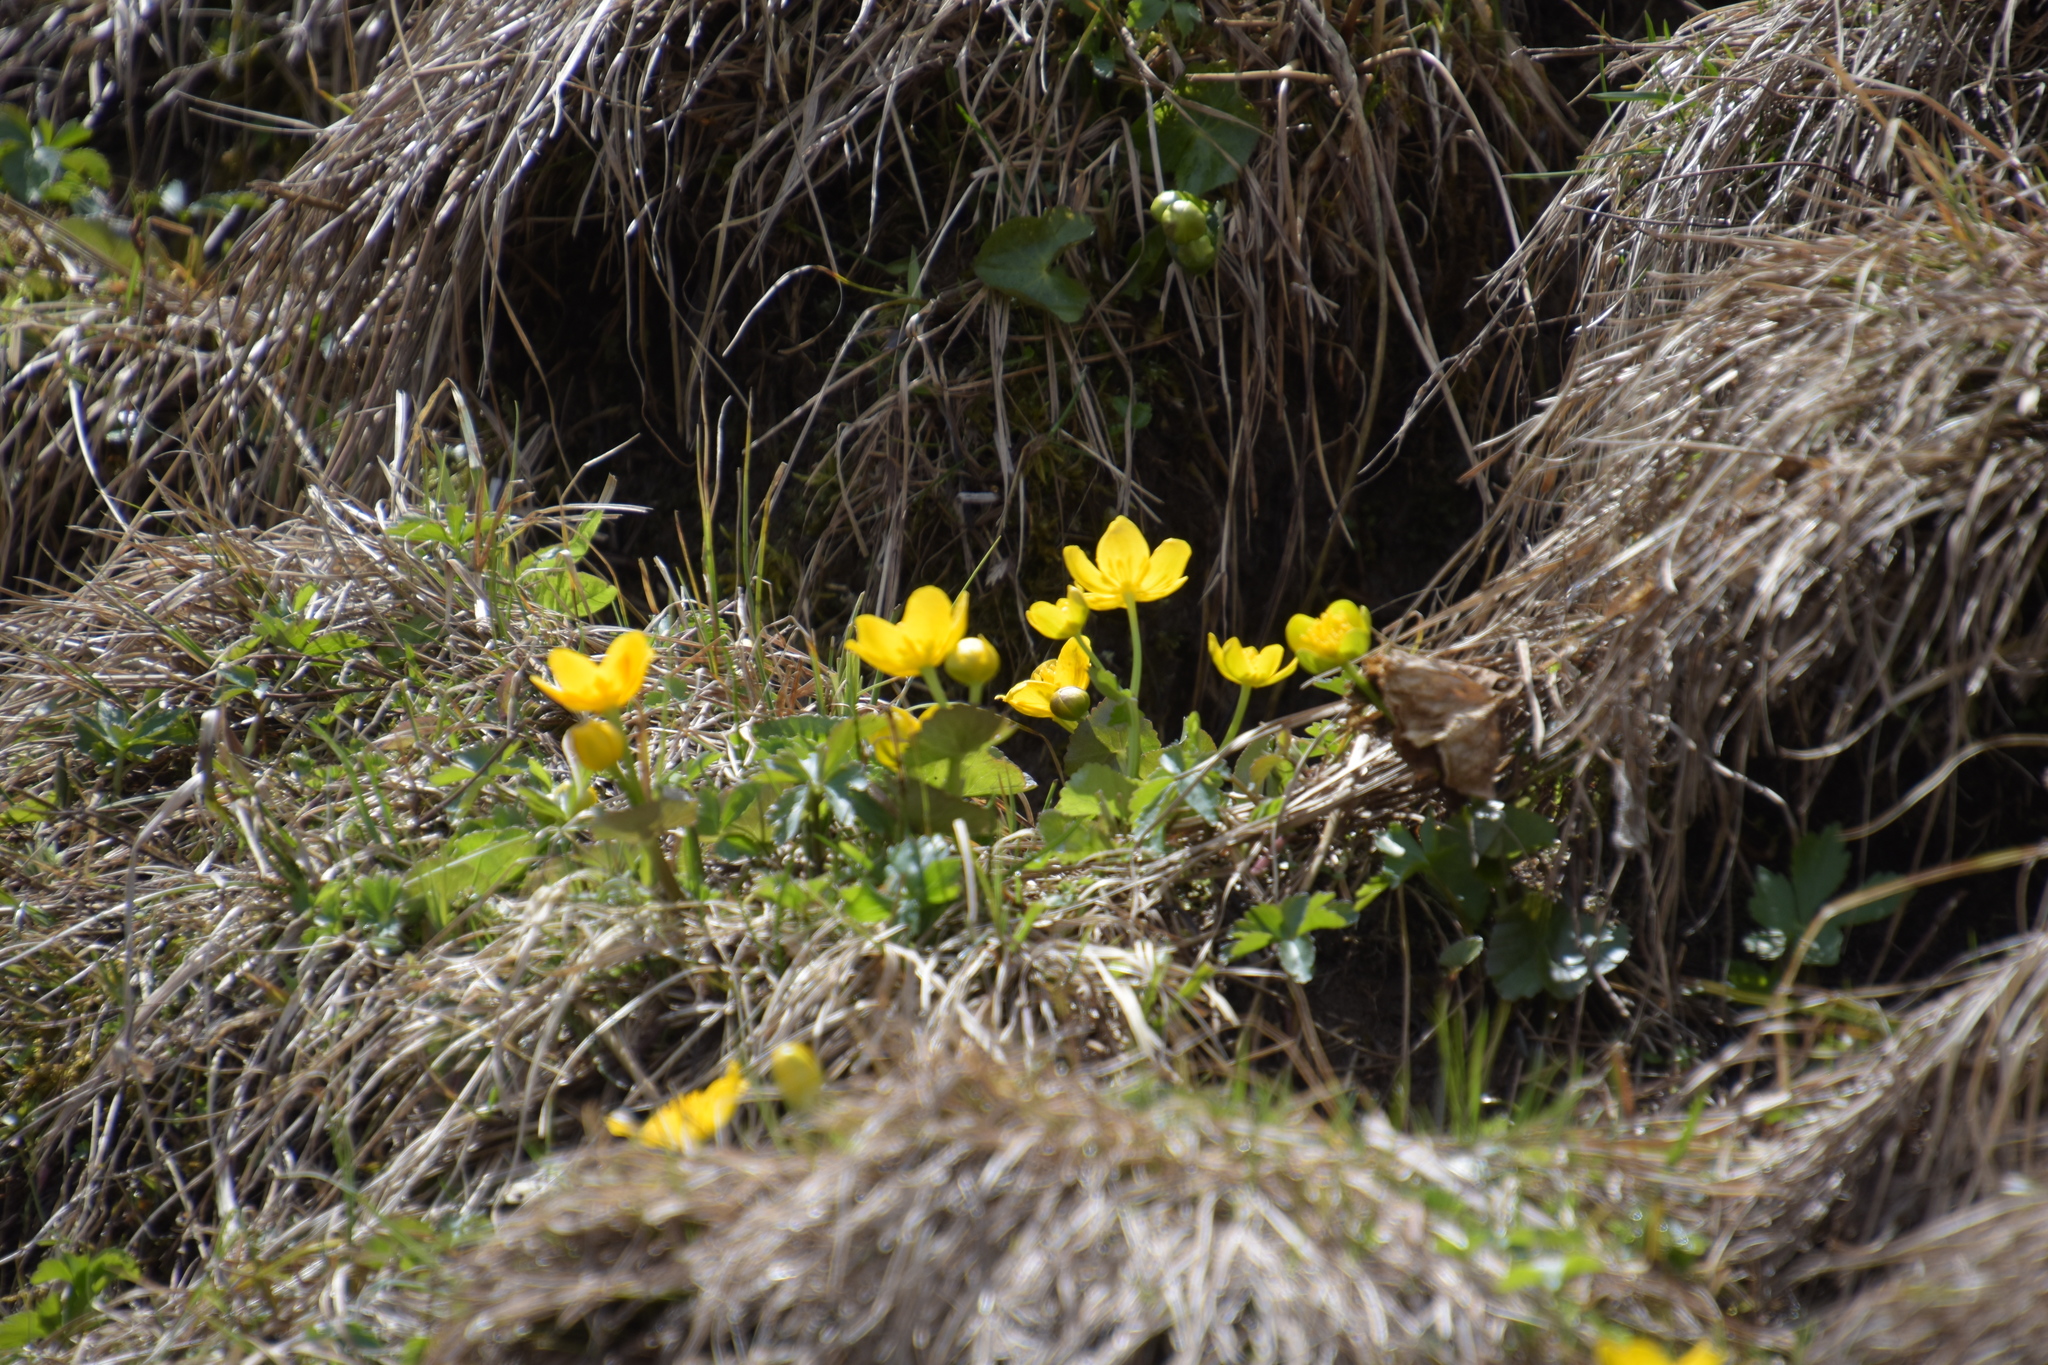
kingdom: Plantae
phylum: Tracheophyta
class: Magnoliopsida
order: Ranunculales
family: Ranunculaceae
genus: Caltha
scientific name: Caltha palustris
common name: Marsh marigold
